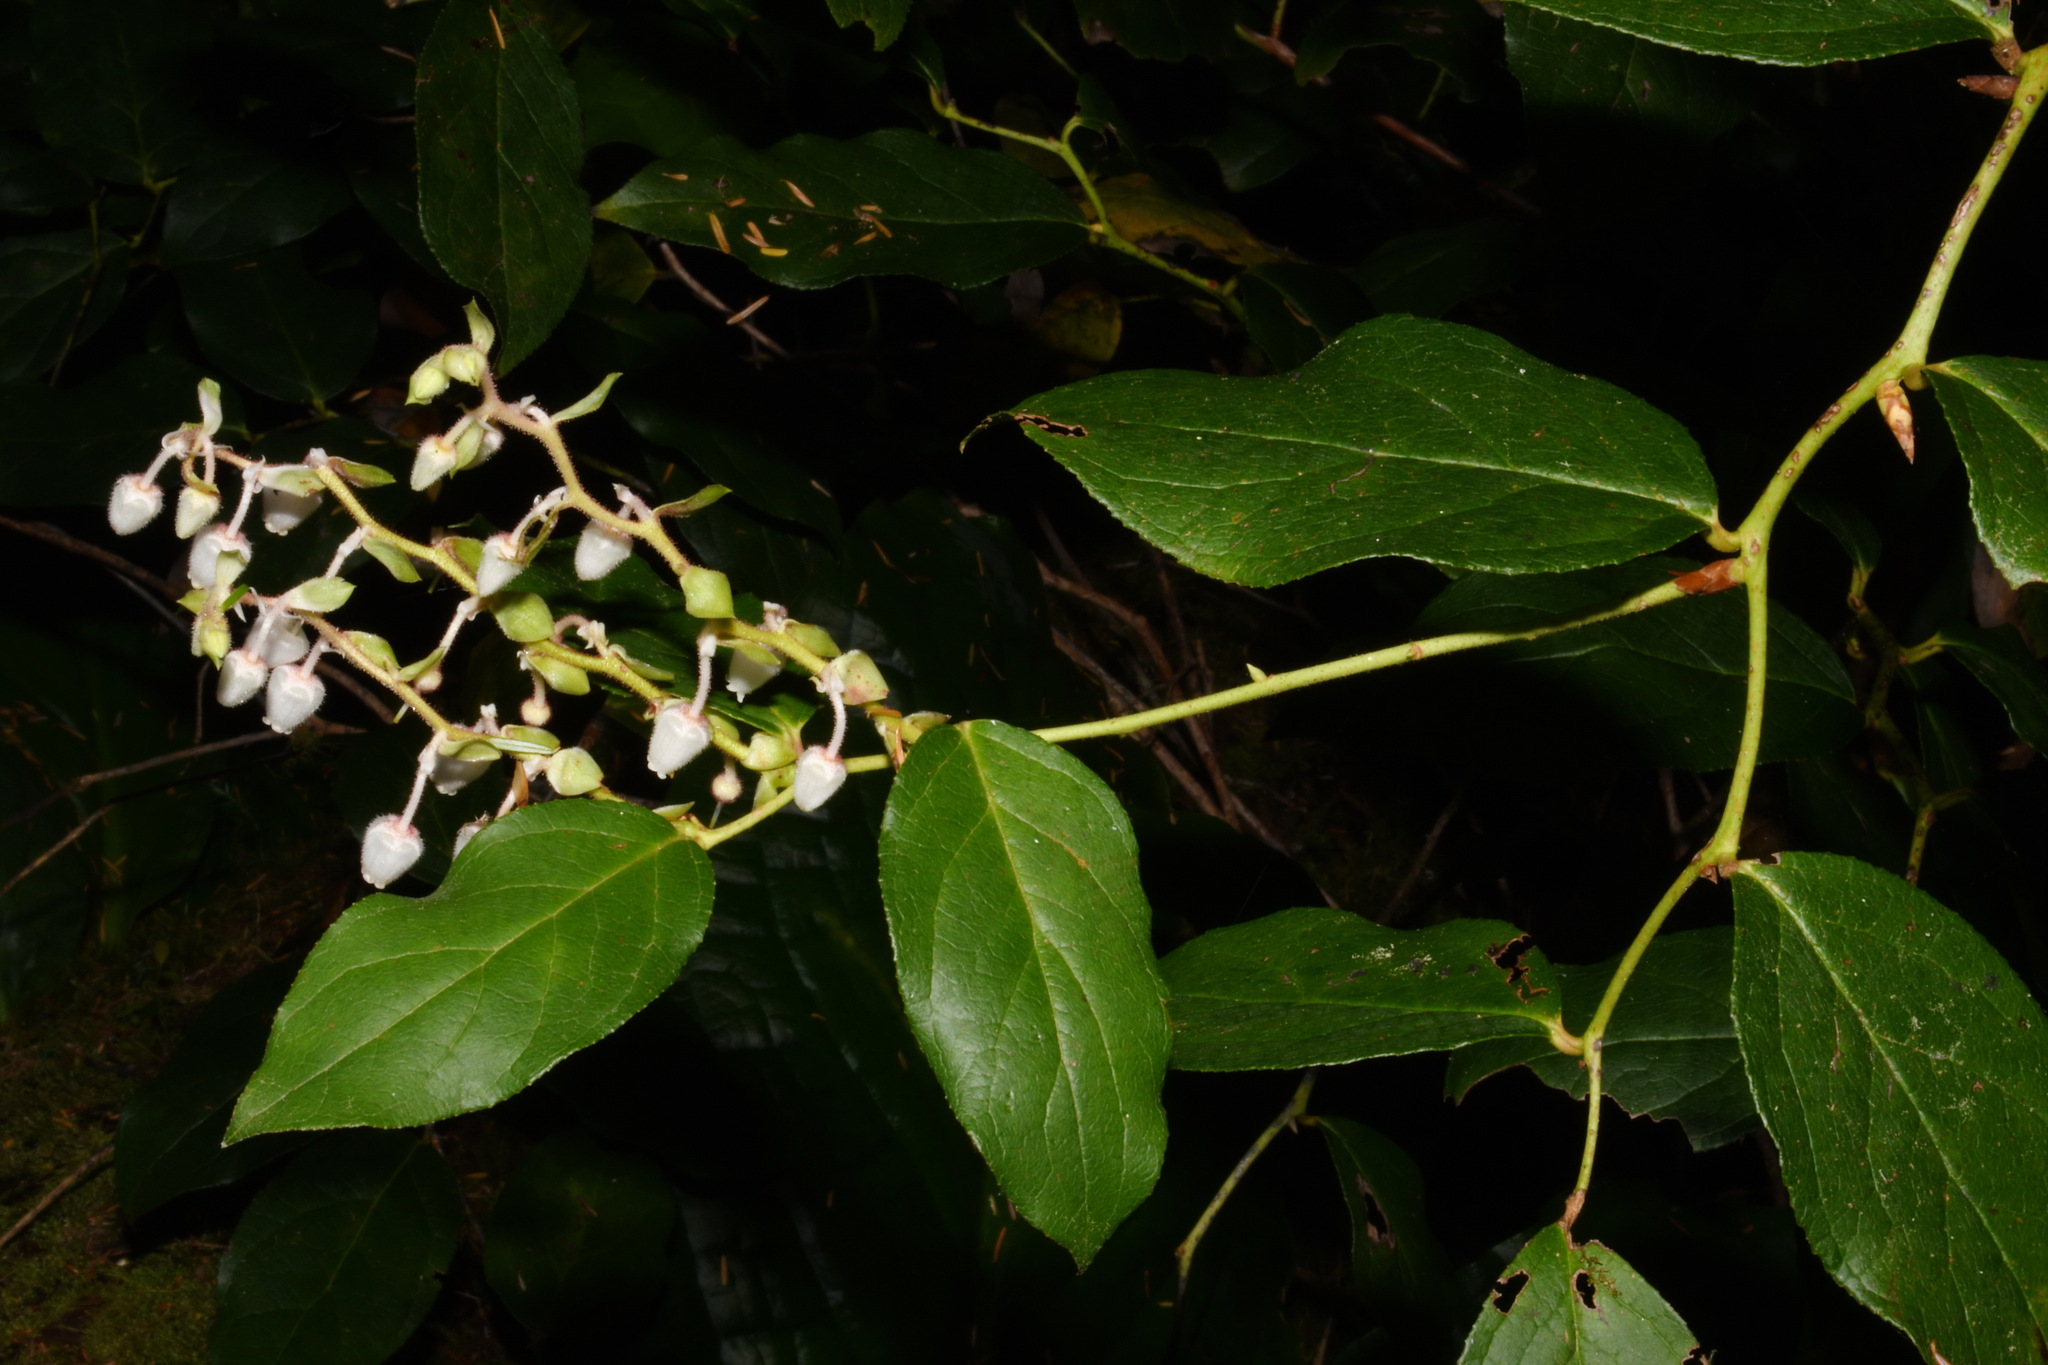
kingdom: Plantae
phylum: Tracheophyta
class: Magnoliopsida
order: Ericales
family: Ericaceae
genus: Gaultheria
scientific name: Gaultheria shallon
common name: Shallon
